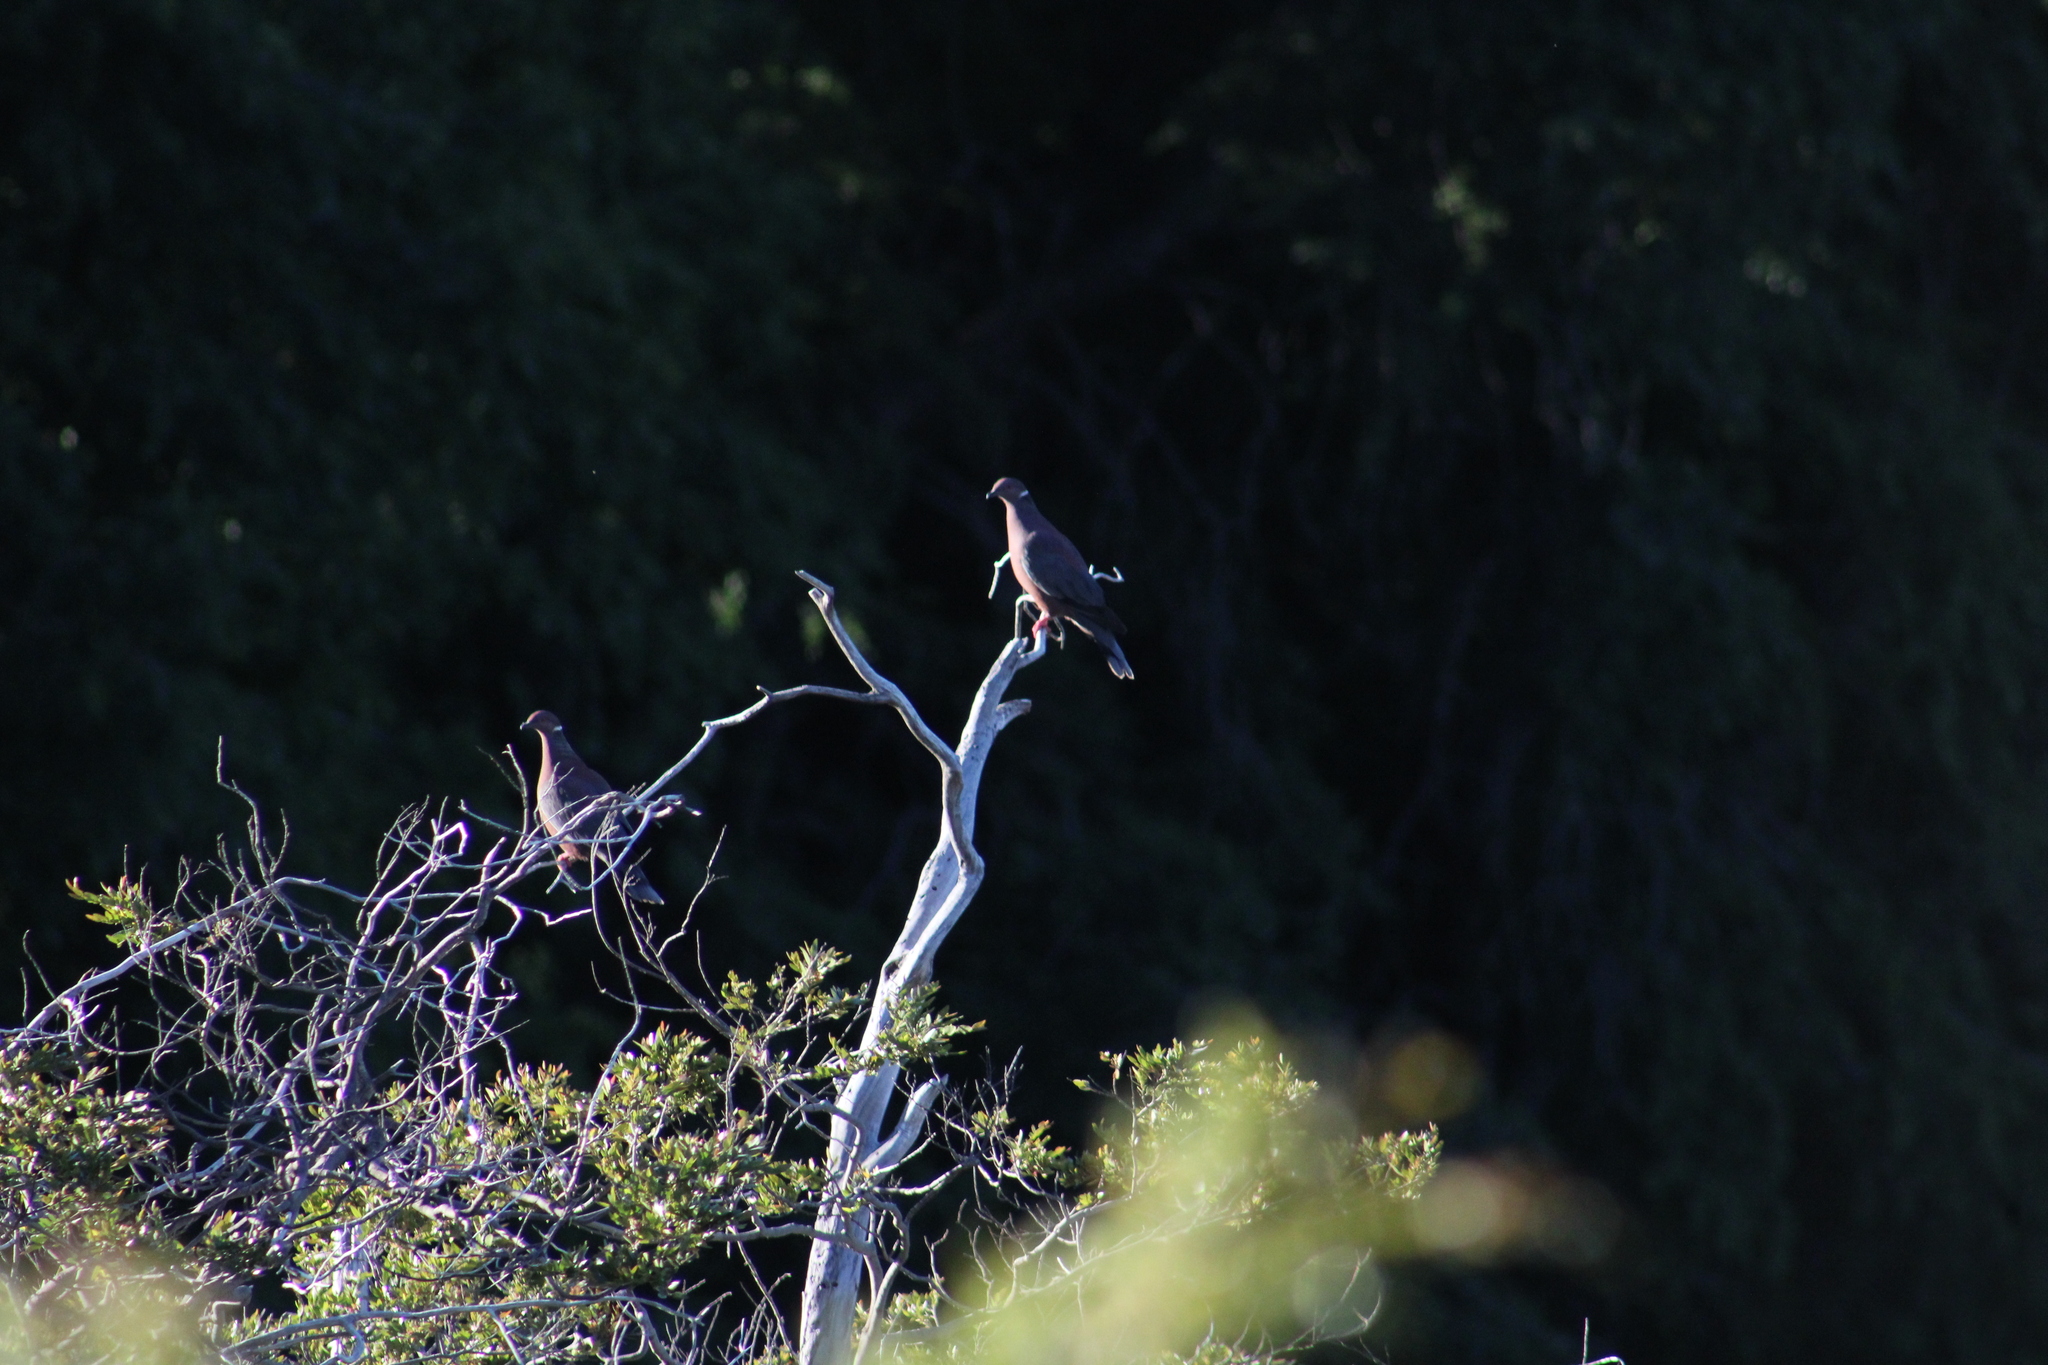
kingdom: Animalia
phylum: Chordata
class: Aves
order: Columbiformes
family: Columbidae
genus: Patagioenas
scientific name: Patagioenas araucana
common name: Chilean pigeon
